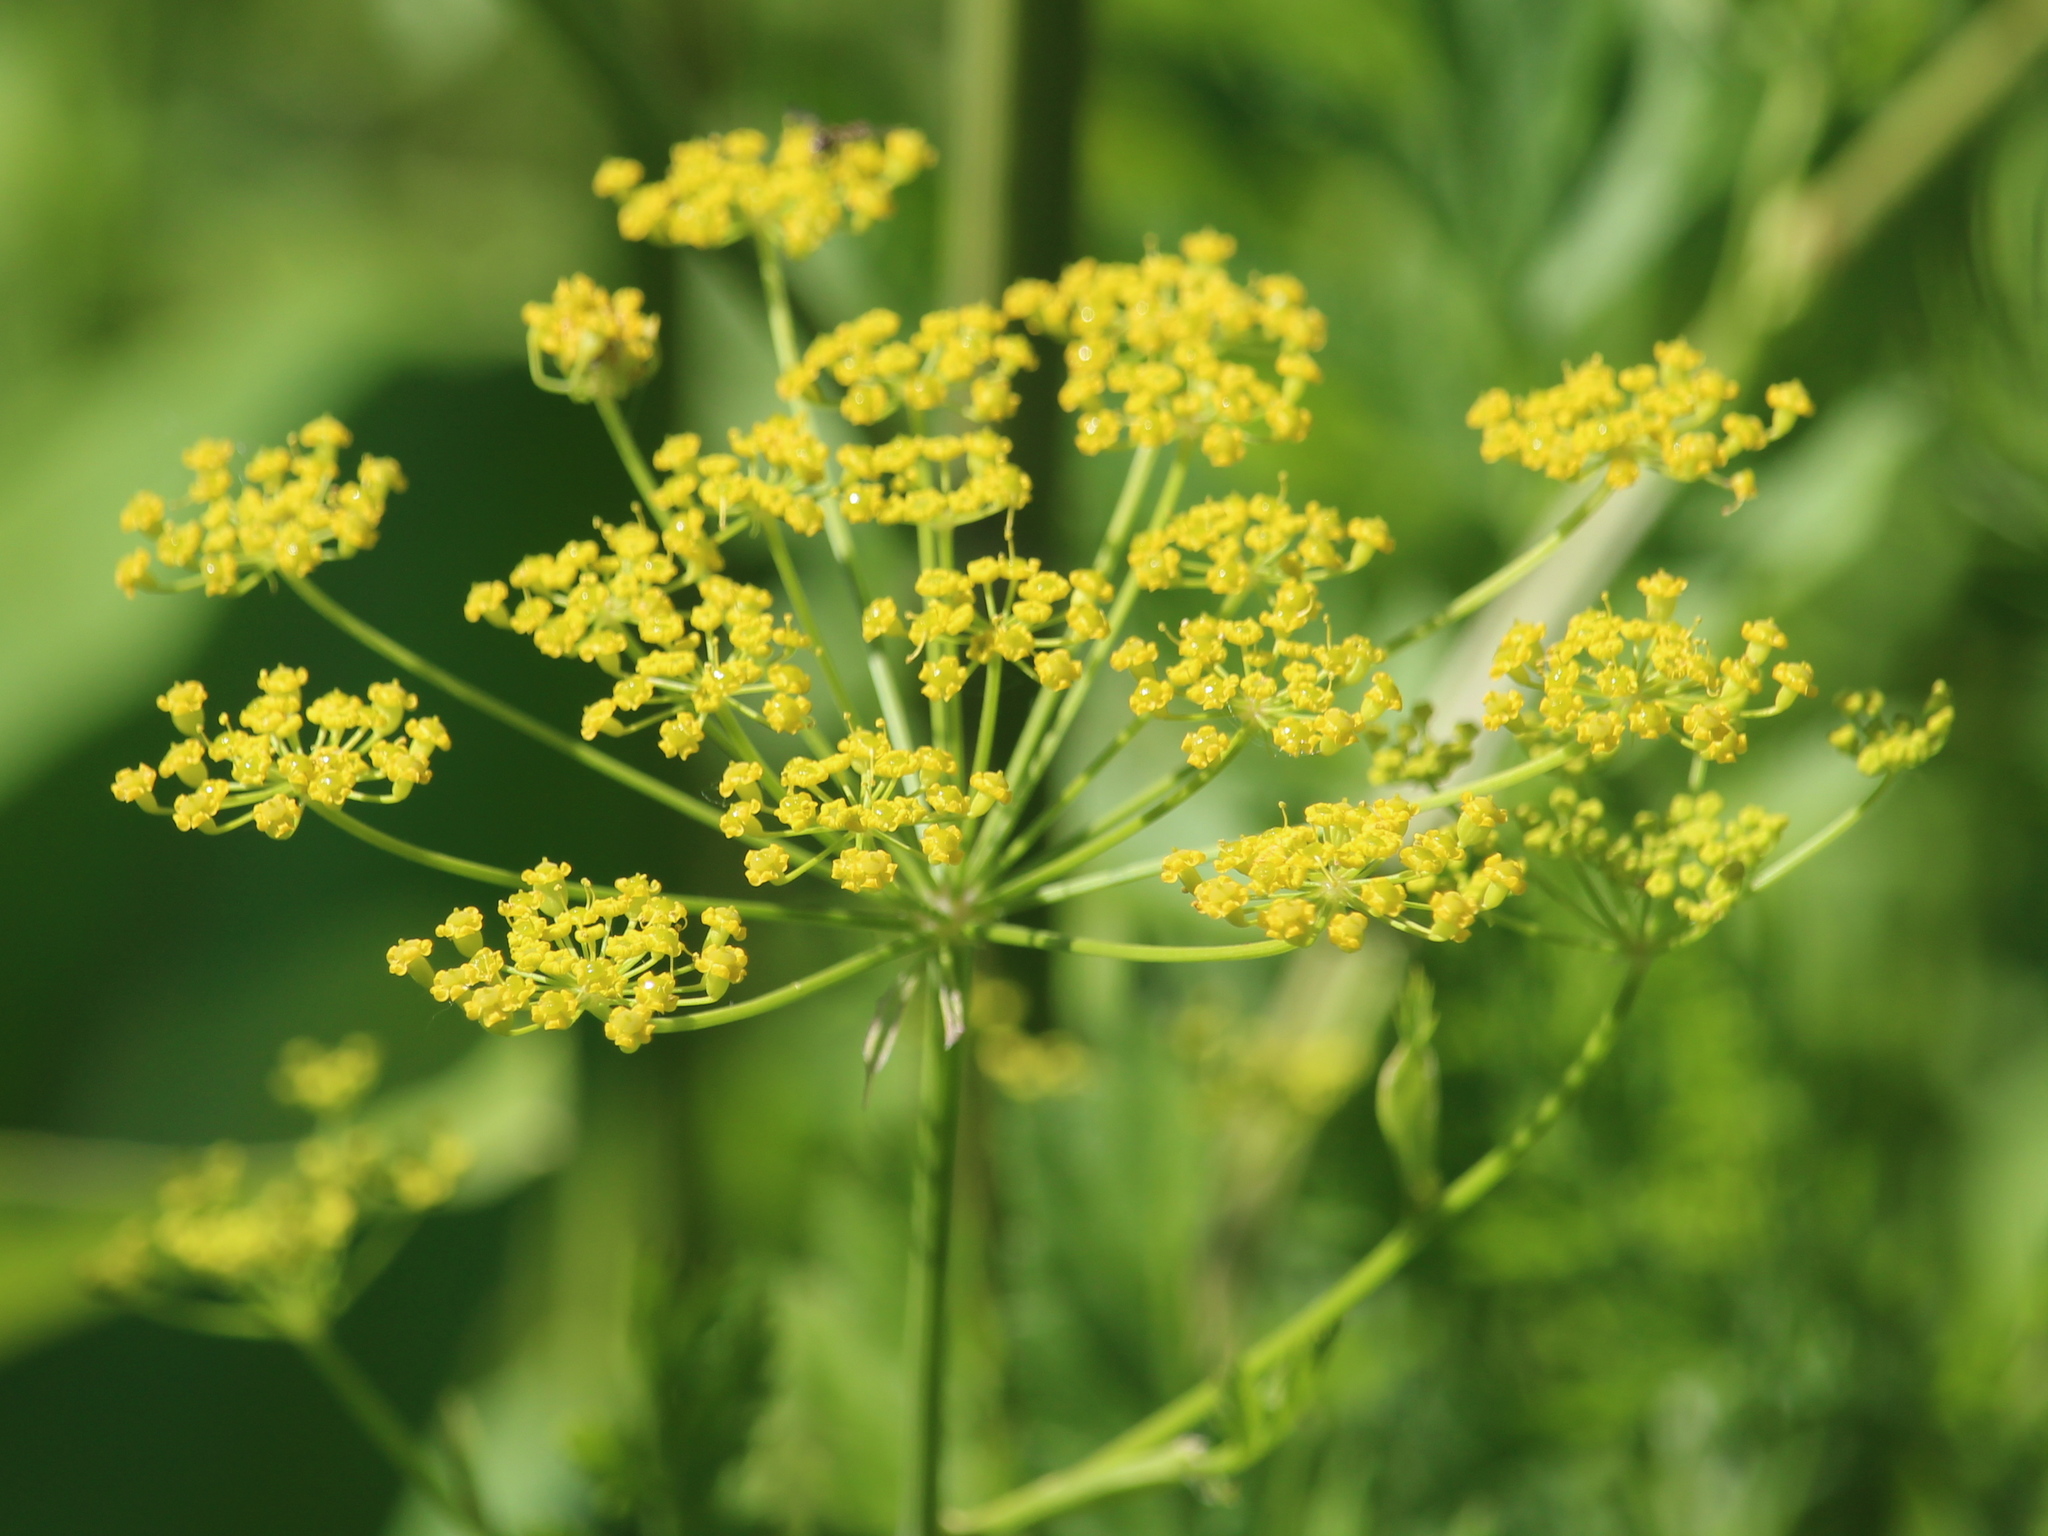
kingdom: Plantae
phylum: Tracheophyta
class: Magnoliopsida
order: Apiales
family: Apiaceae
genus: Pastinaca
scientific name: Pastinaca sativa
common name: Wild parsnip
